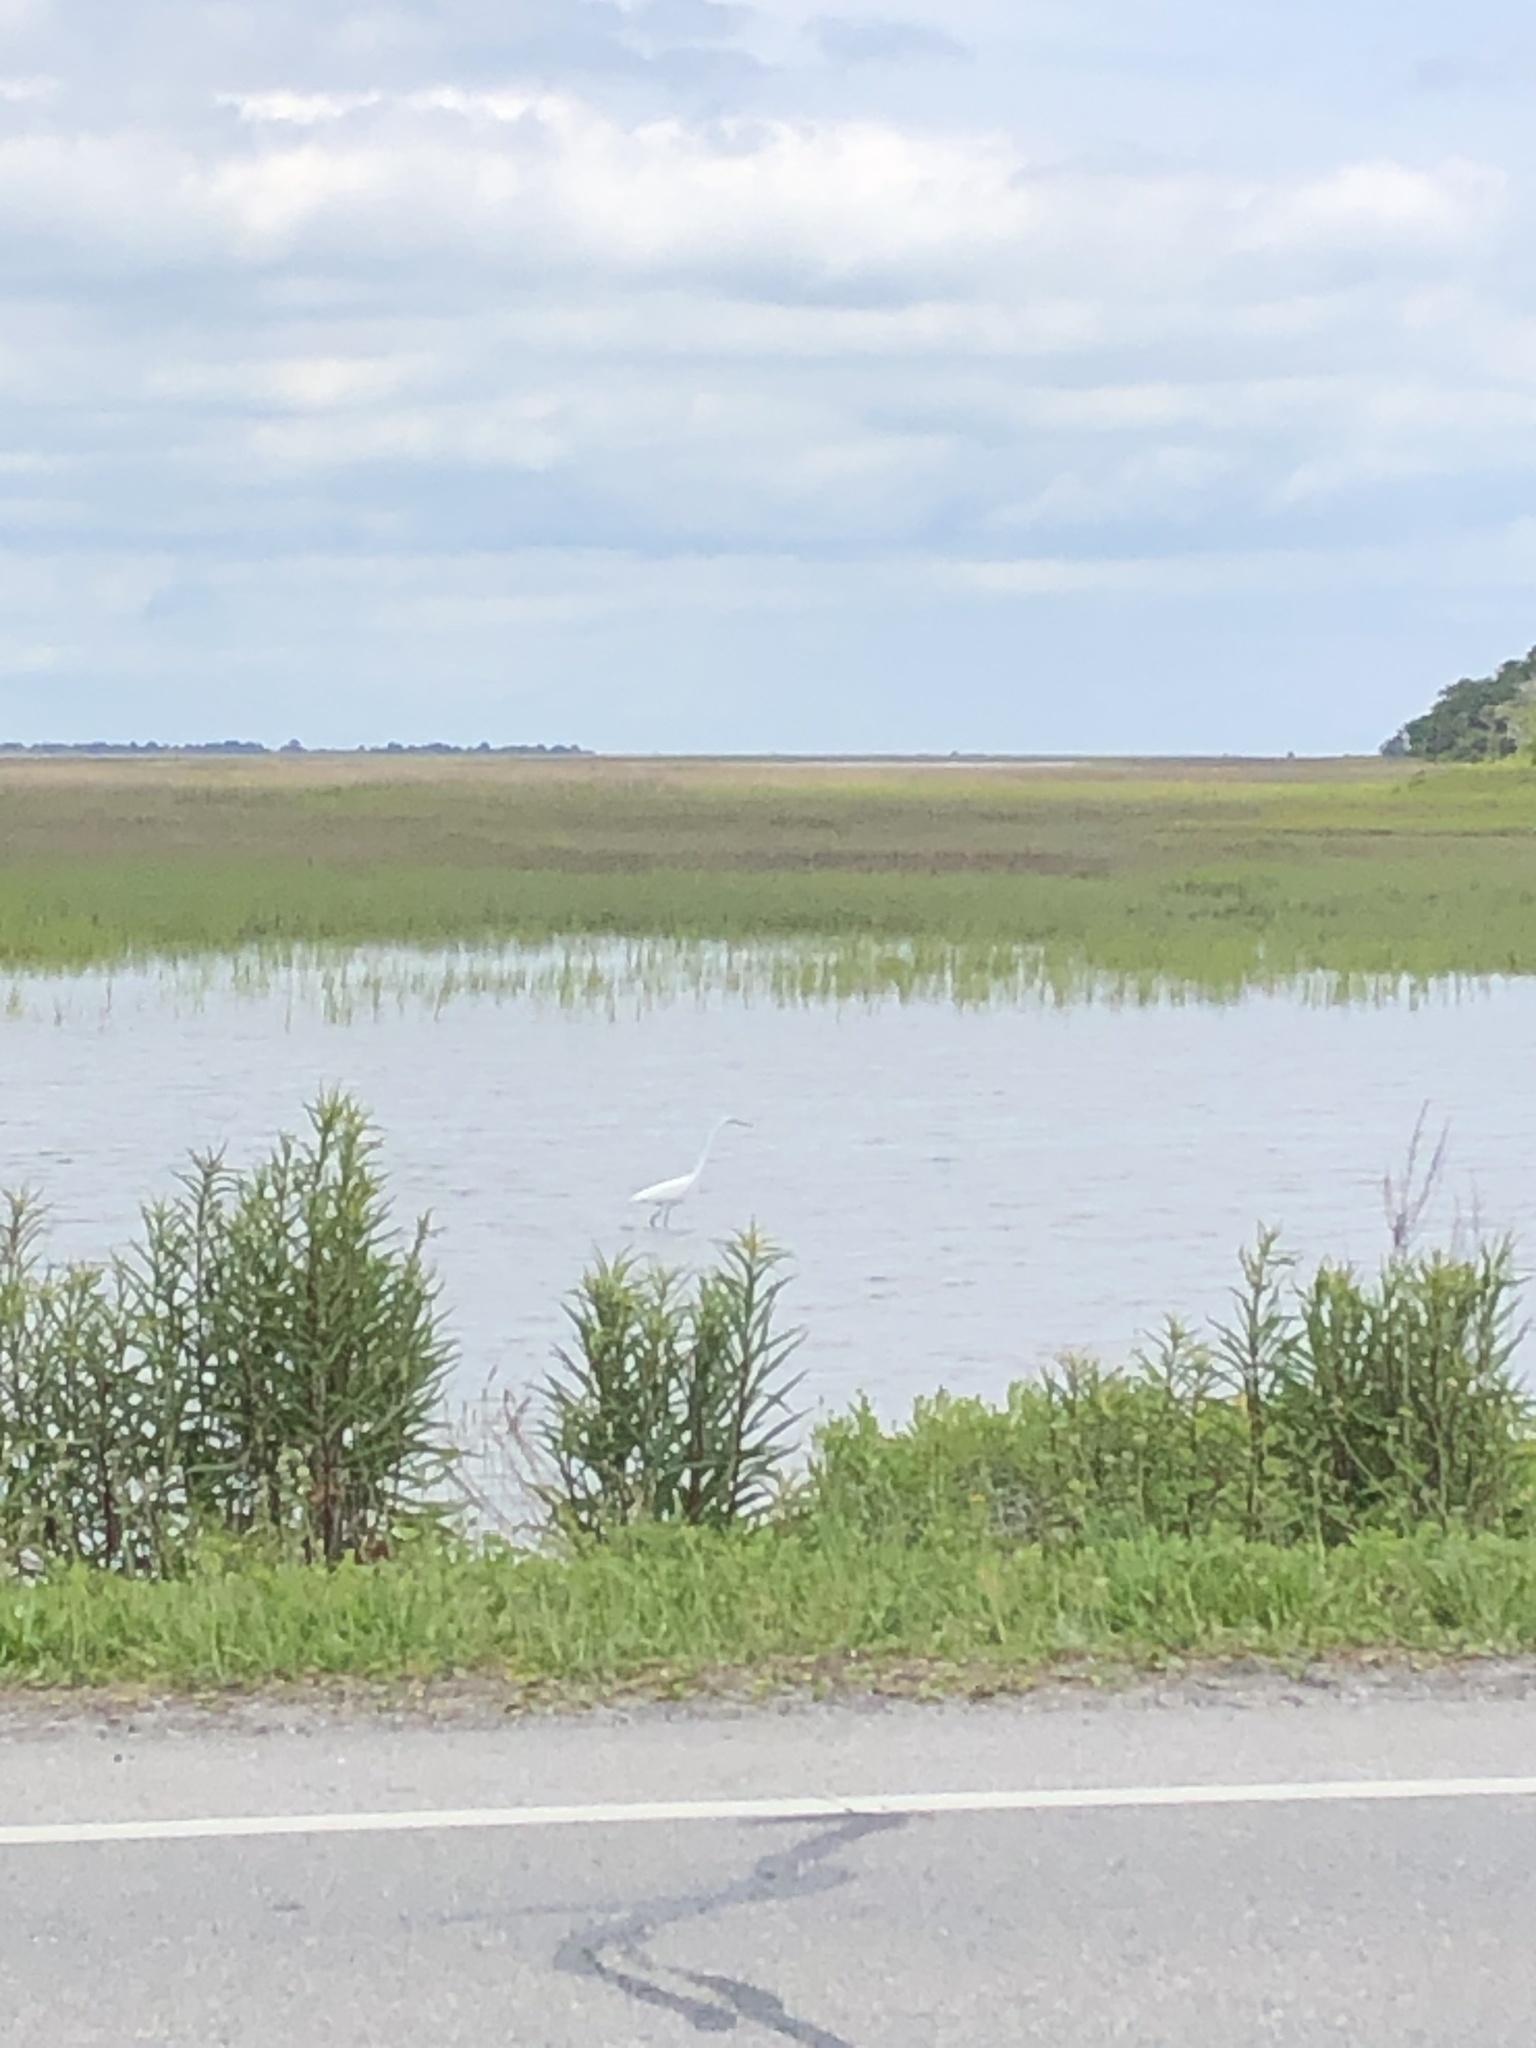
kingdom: Animalia
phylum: Chordata
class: Aves
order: Pelecaniformes
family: Ardeidae
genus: Ardea
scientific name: Ardea alba
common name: Great egret
